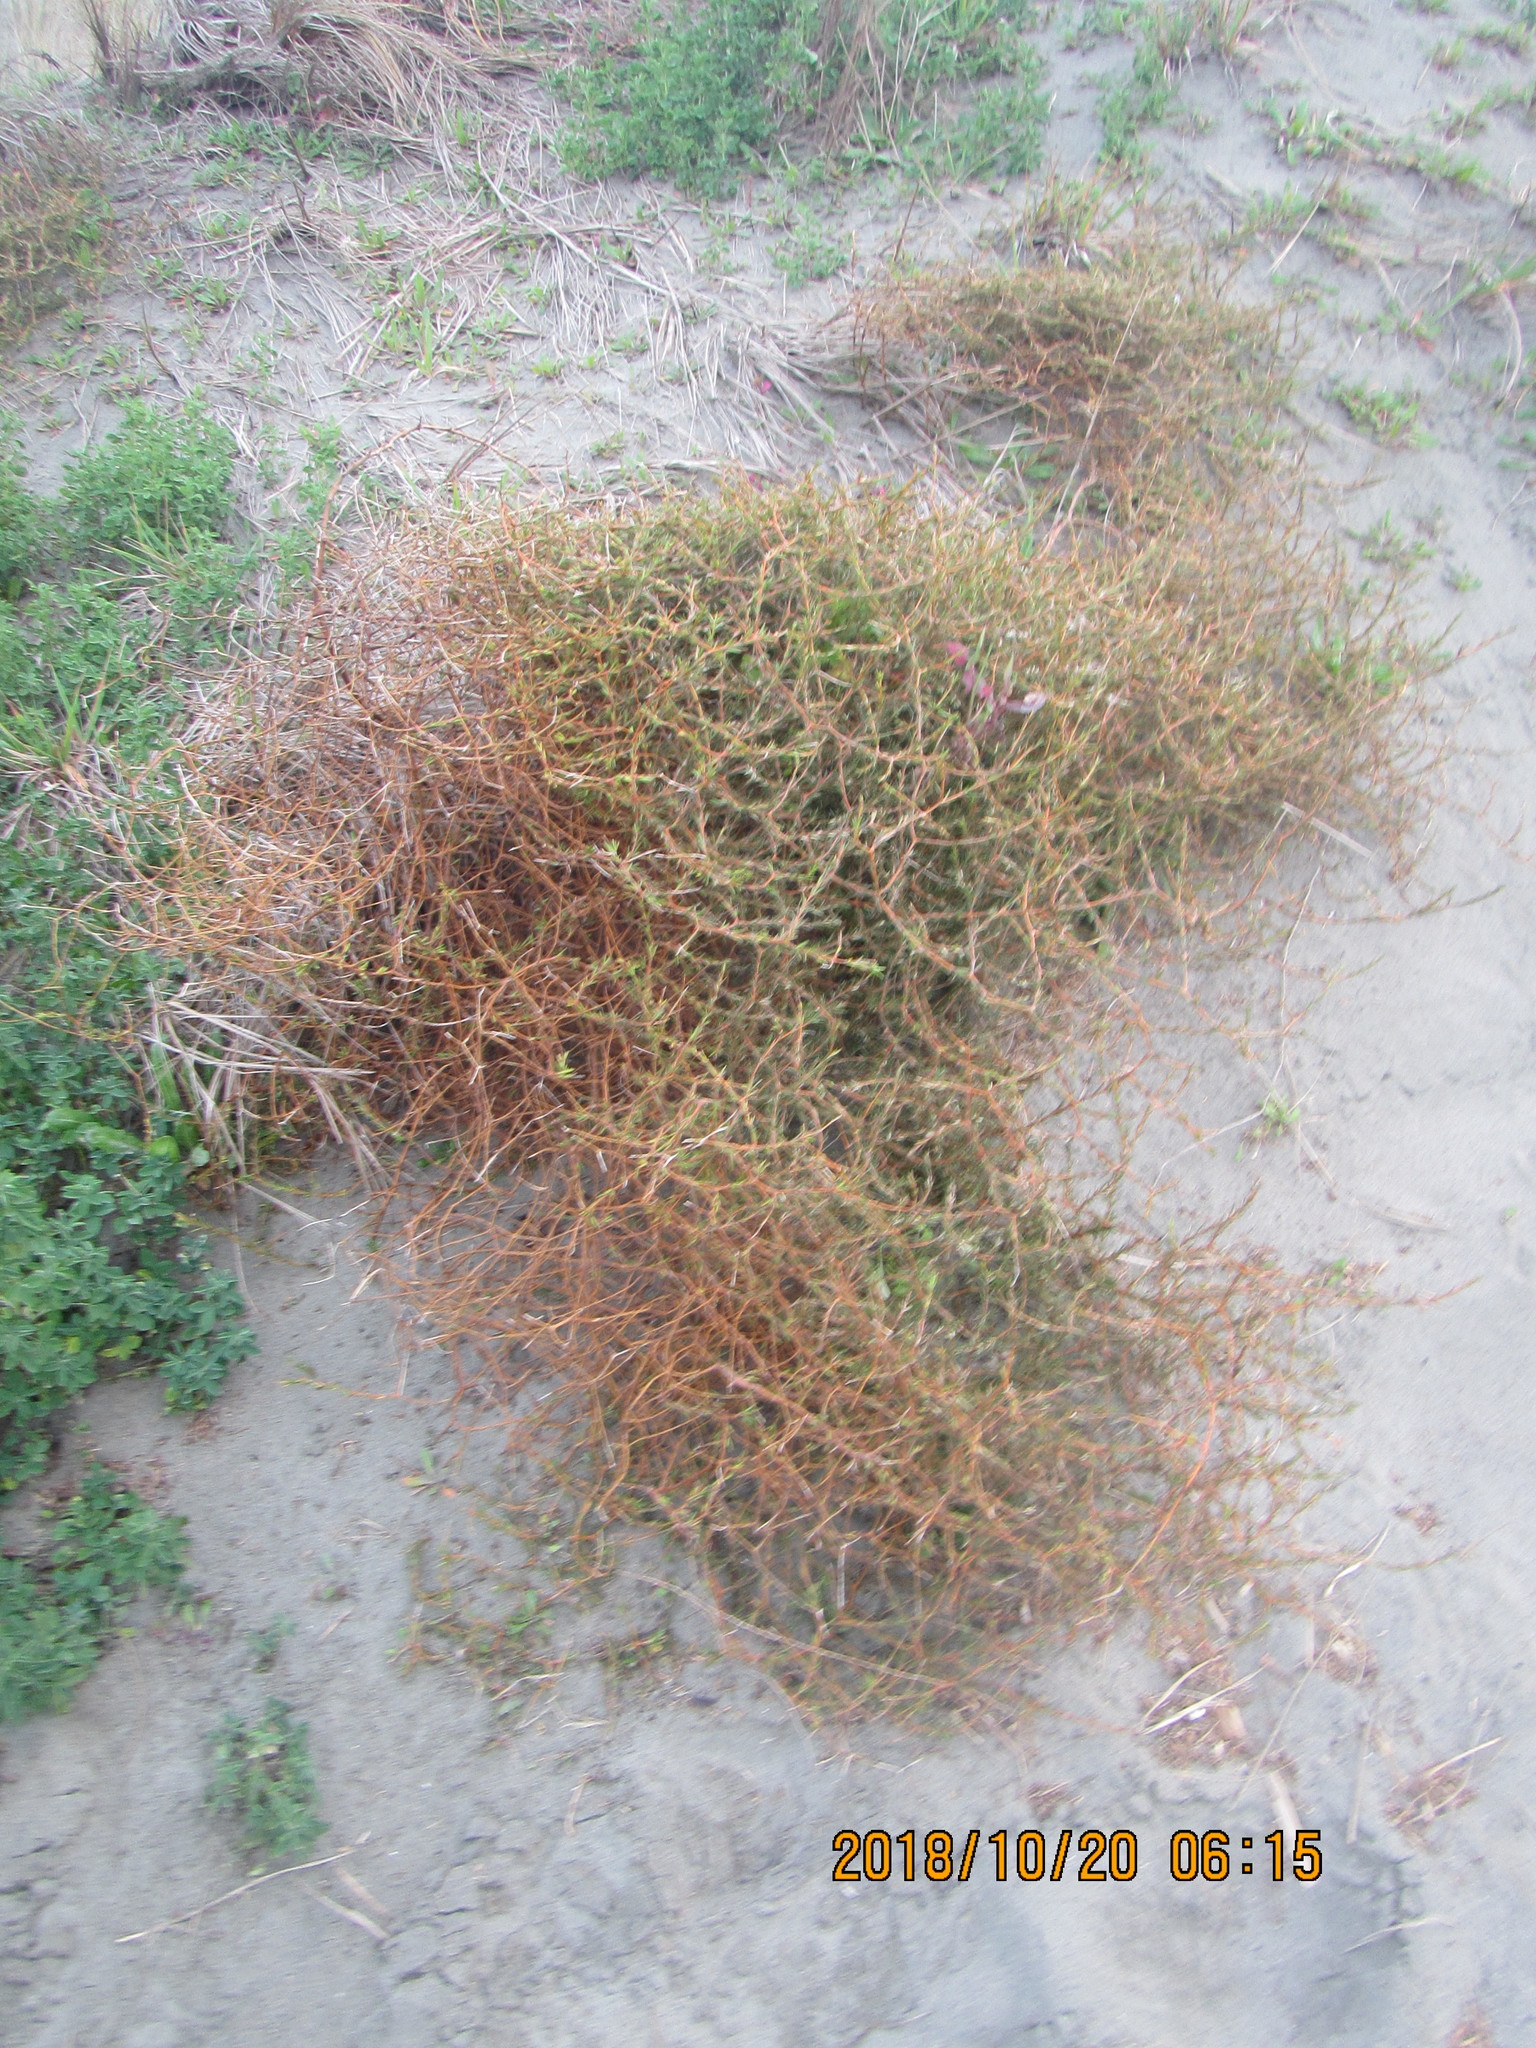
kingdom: Plantae
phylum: Tracheophyta
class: Magnoliopsida
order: Gentianales
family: Rubiaceae
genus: Coprosma
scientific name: Coprosma acerosa
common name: Sand coprosma
